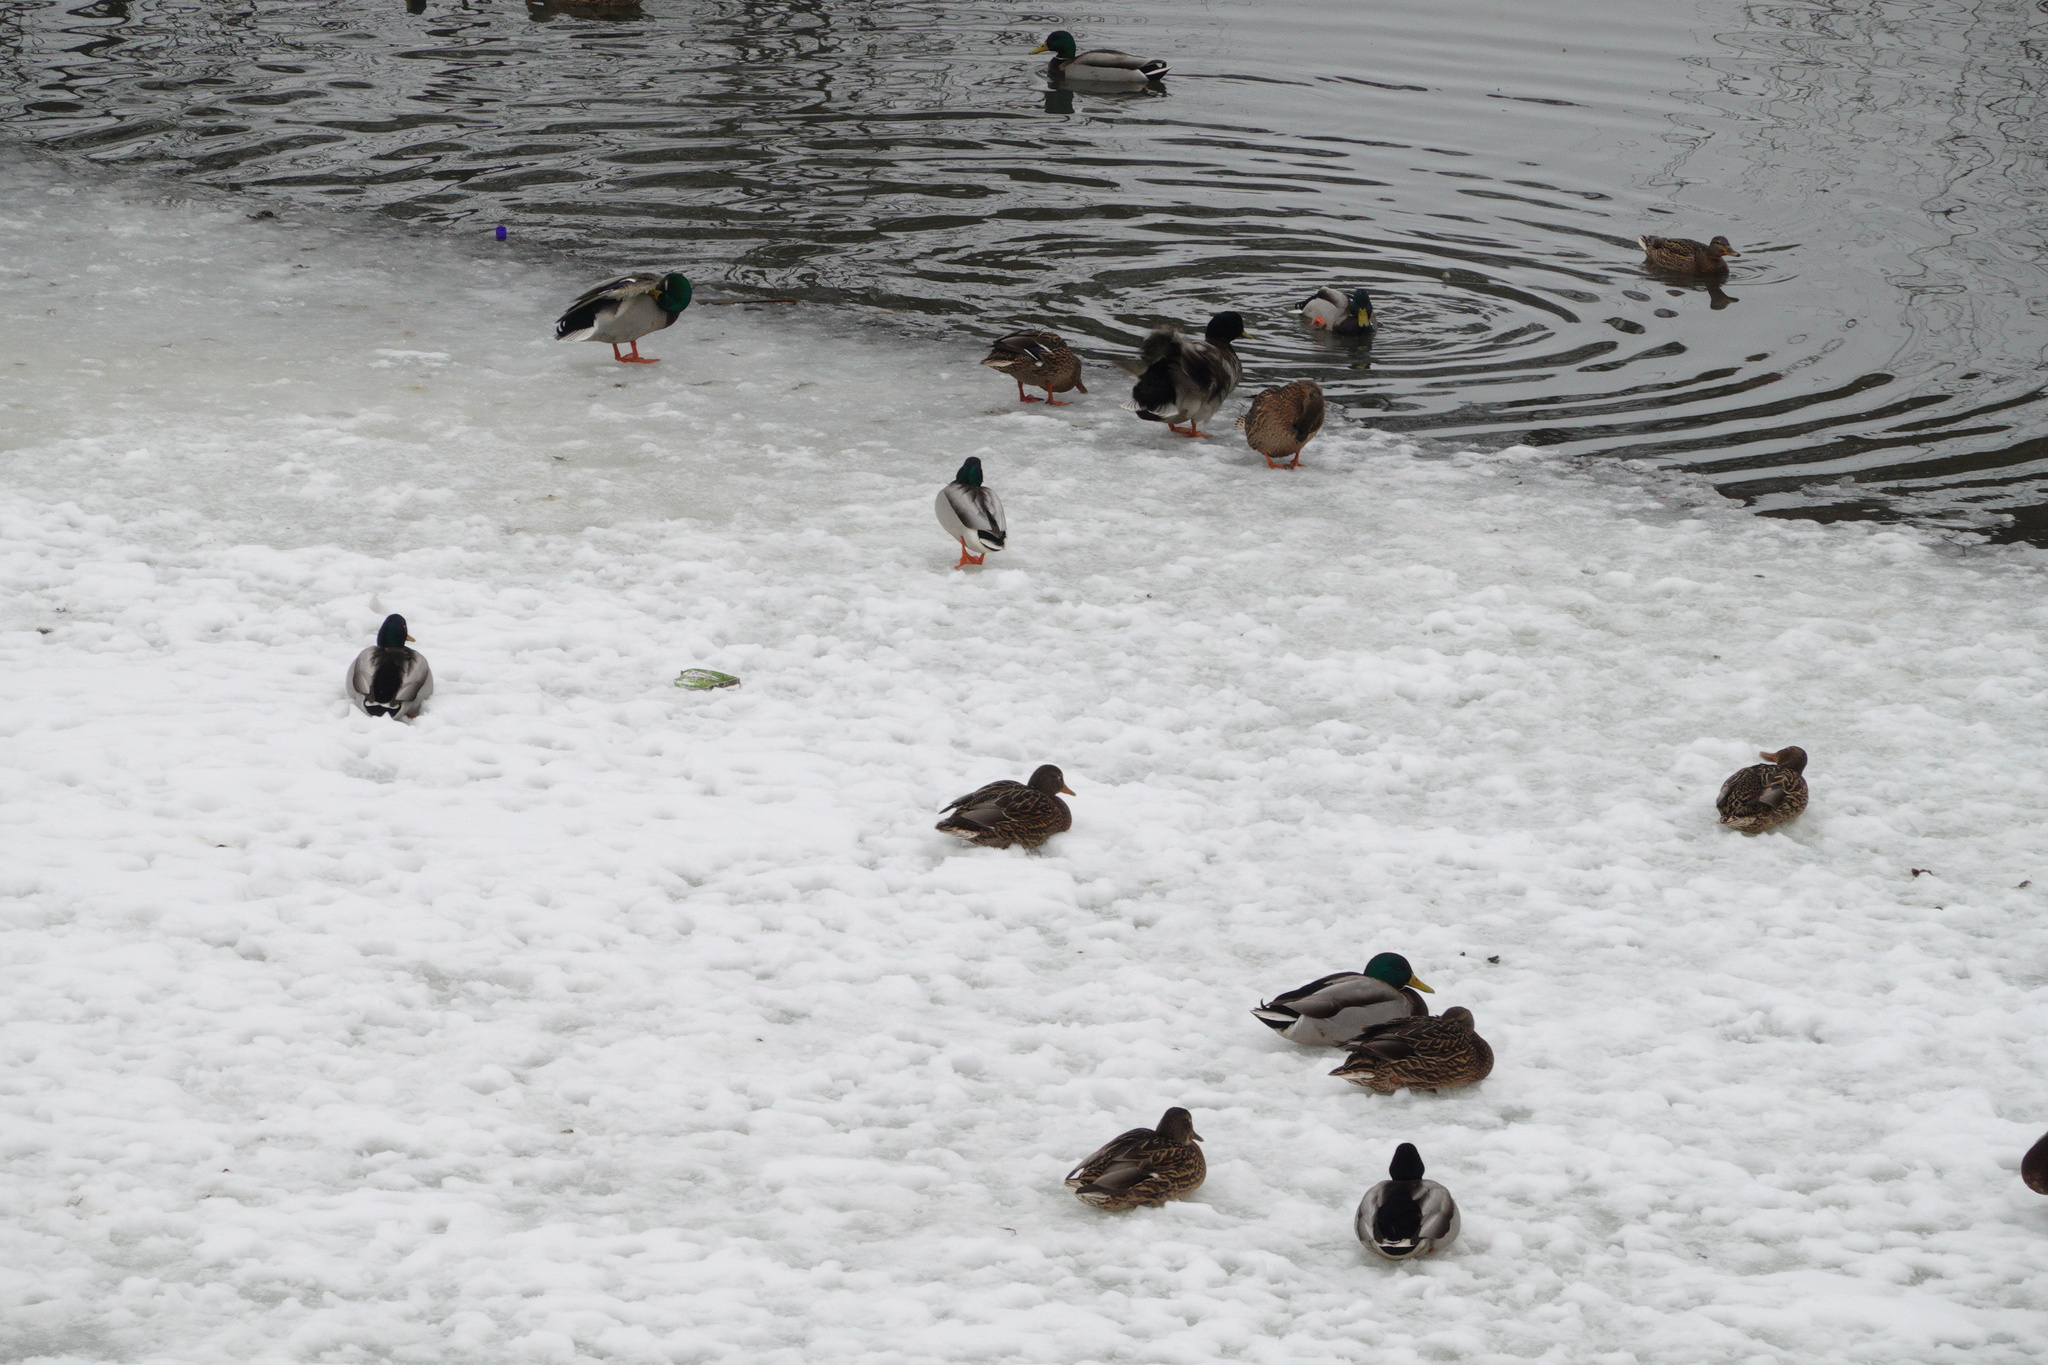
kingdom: Animalia
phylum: Chordata
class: Aves
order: Anseriformes
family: Anatidae
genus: Anas
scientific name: Anas platyrhynchos
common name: Mallard
